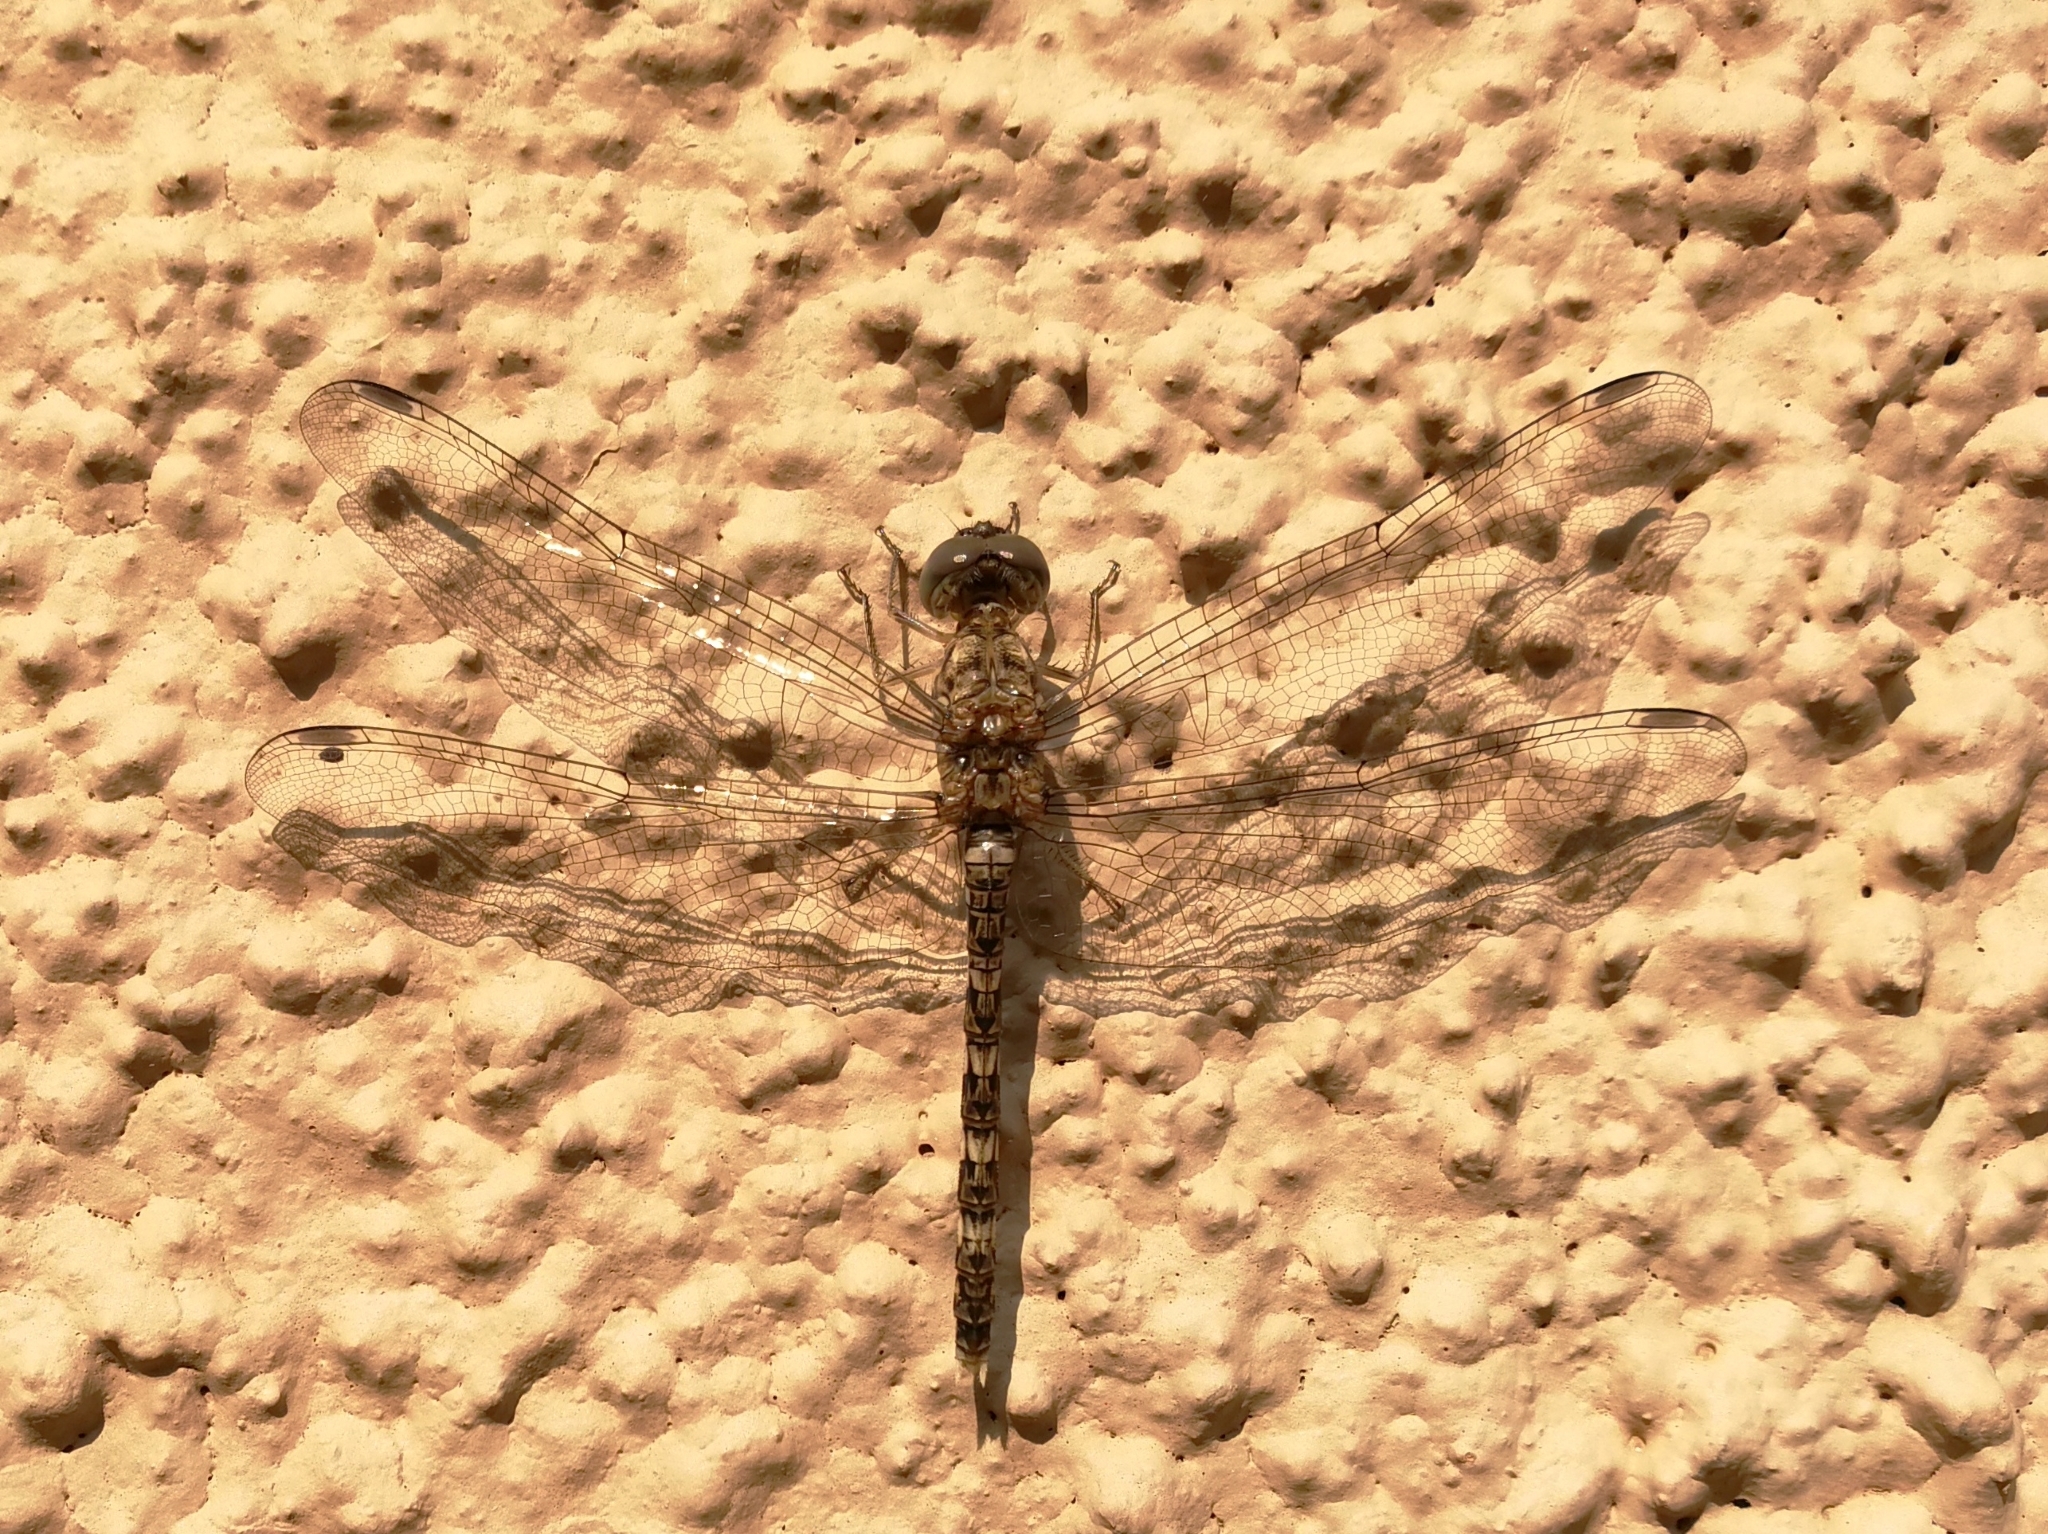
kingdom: Animalia
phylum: Arthropoda
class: Insecta
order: Odonata
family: Libellulidae
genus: Bradinopyga
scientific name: Bradinopyga geminata
